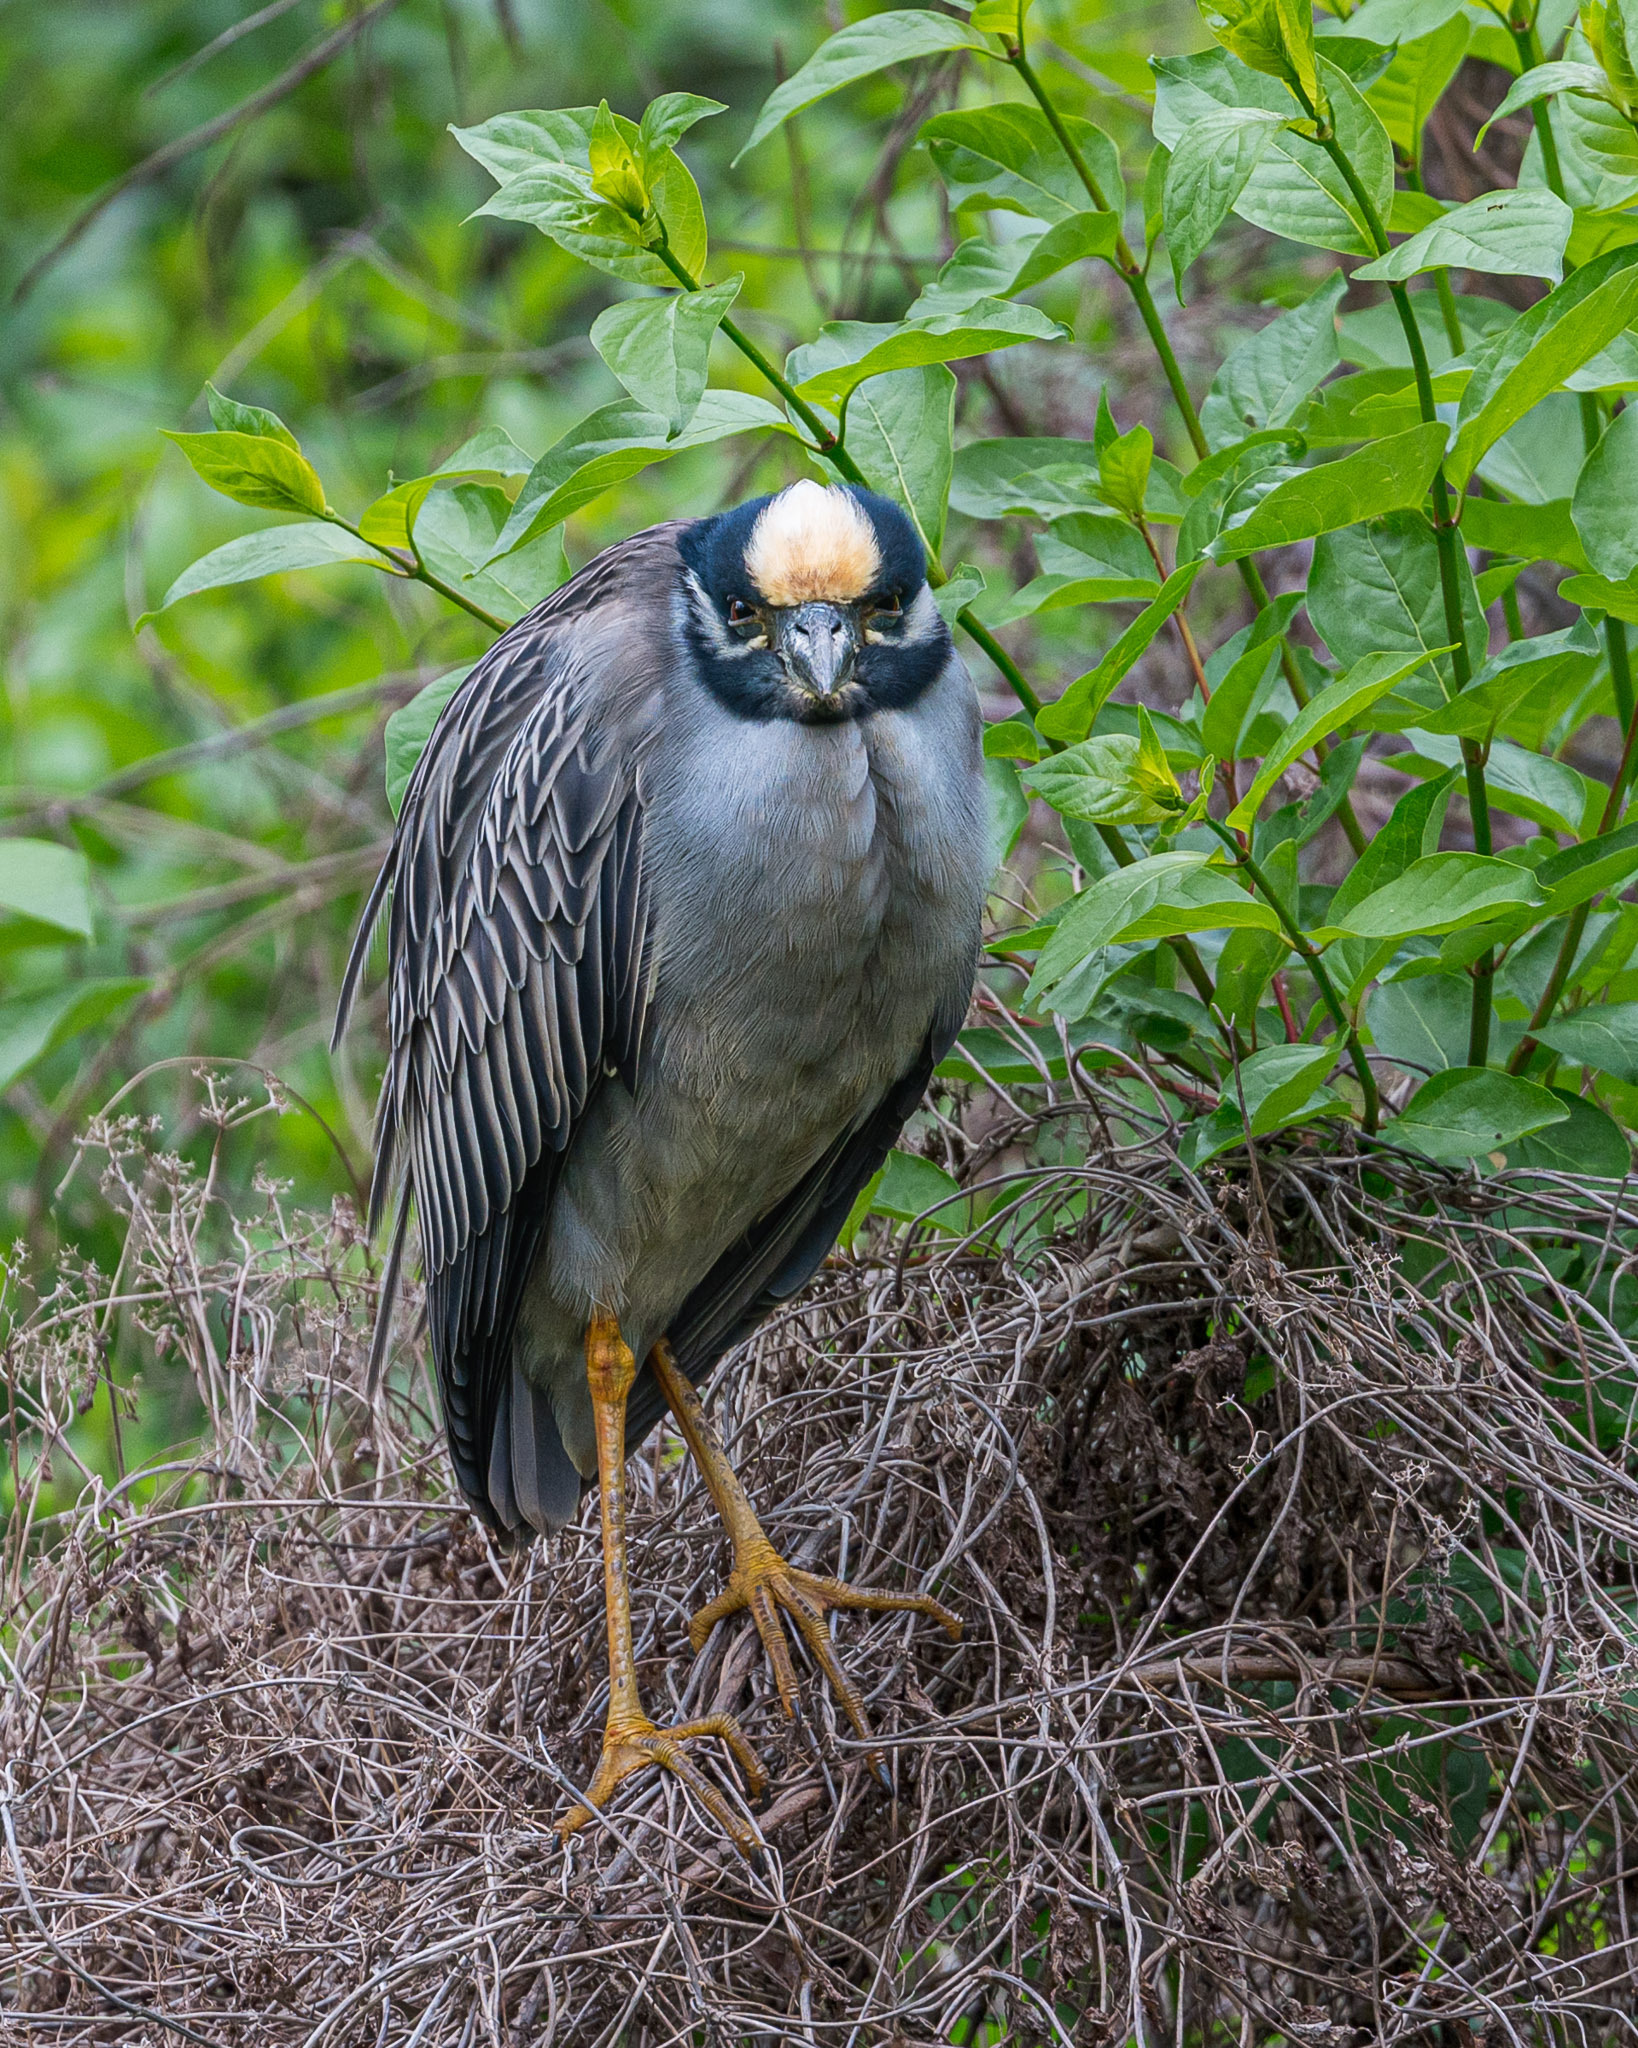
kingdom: Animalia
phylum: Chordata
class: Aves
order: Pelecaniformes
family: Ardeidae
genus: Nyctanassa
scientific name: Nyctanassa violacea
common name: Yellow-crowned night heron
